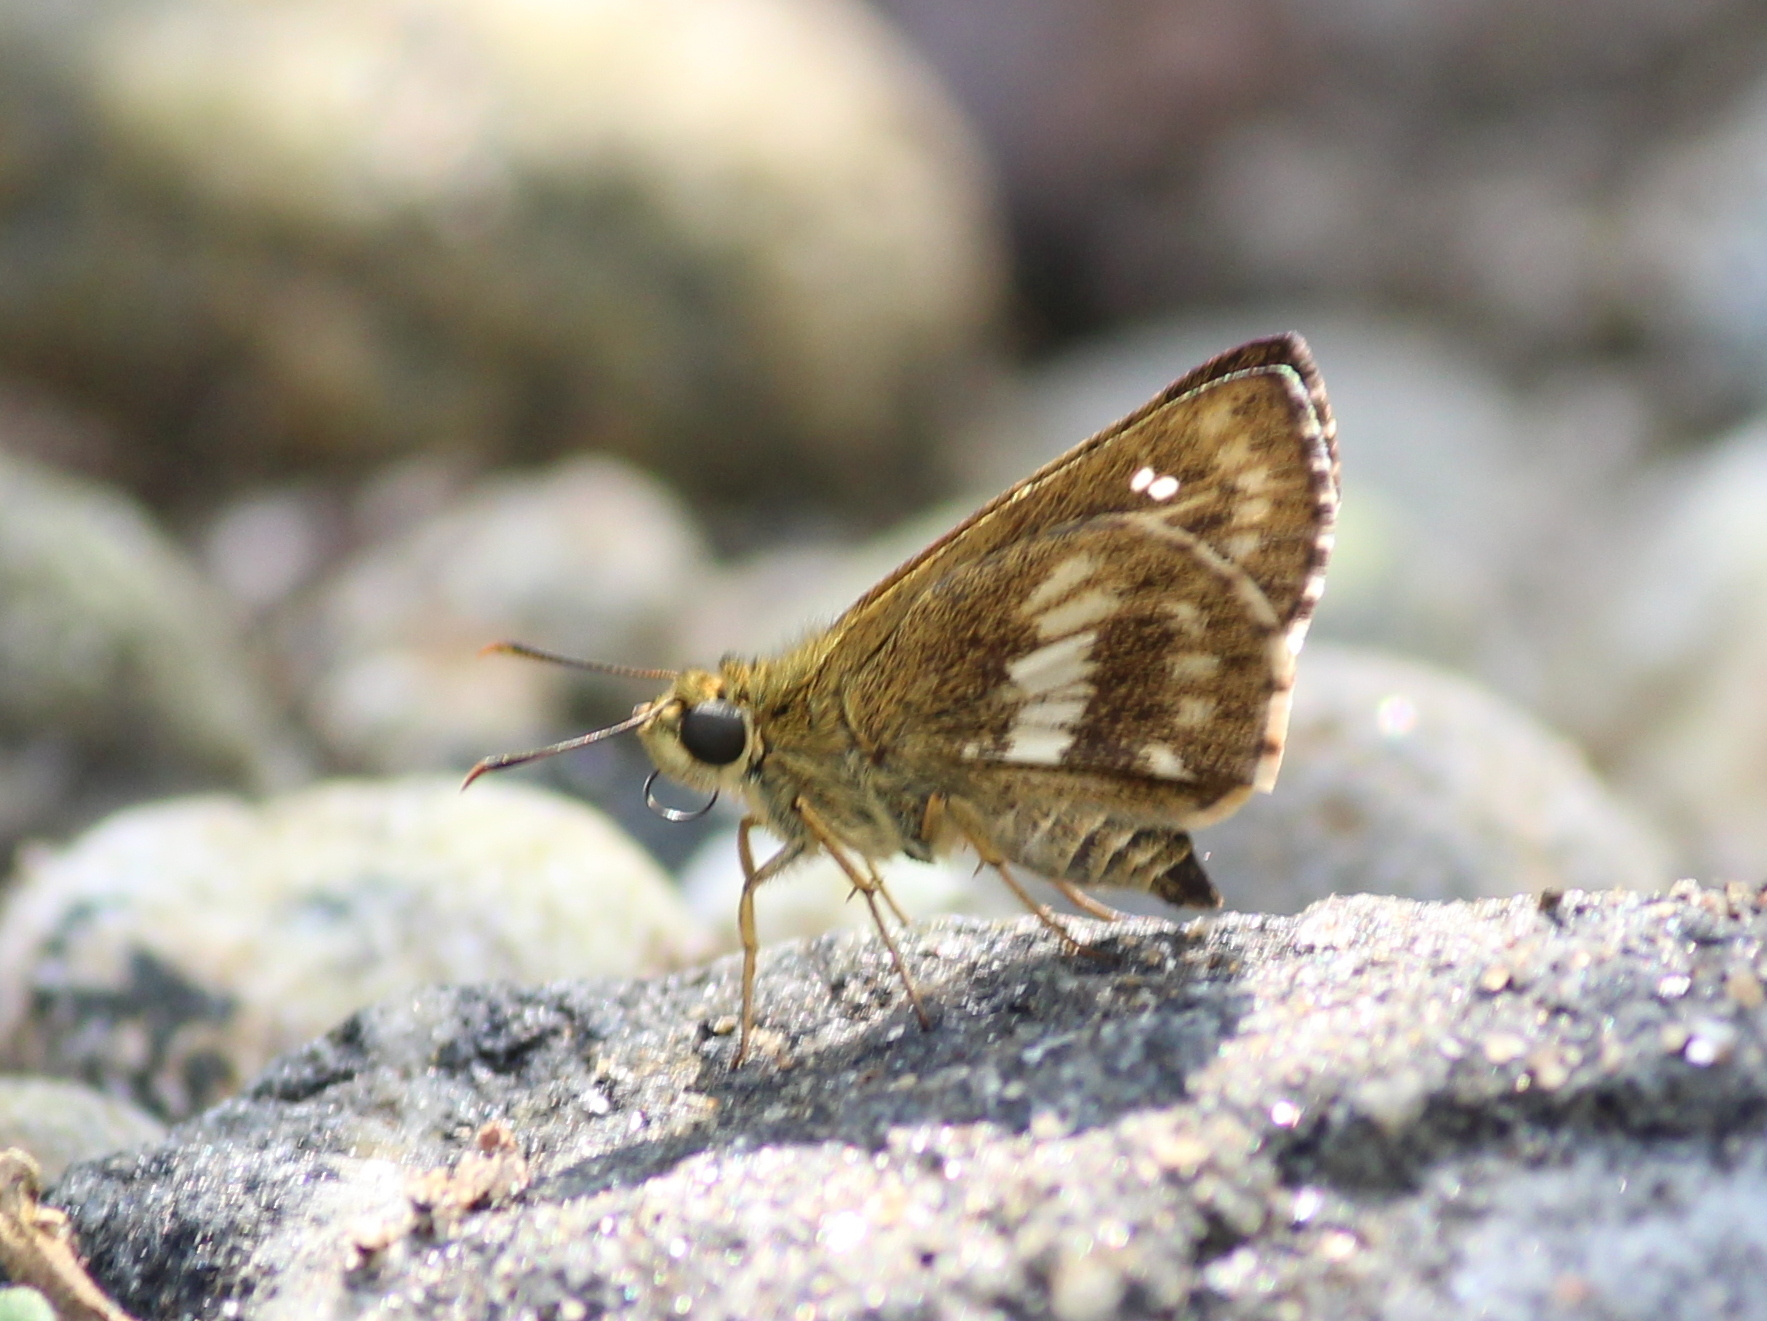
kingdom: Animalia
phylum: Arthropoda
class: Insecta
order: Lepidoptera
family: Hesperiidae
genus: Halpe
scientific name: Halpe homolea
